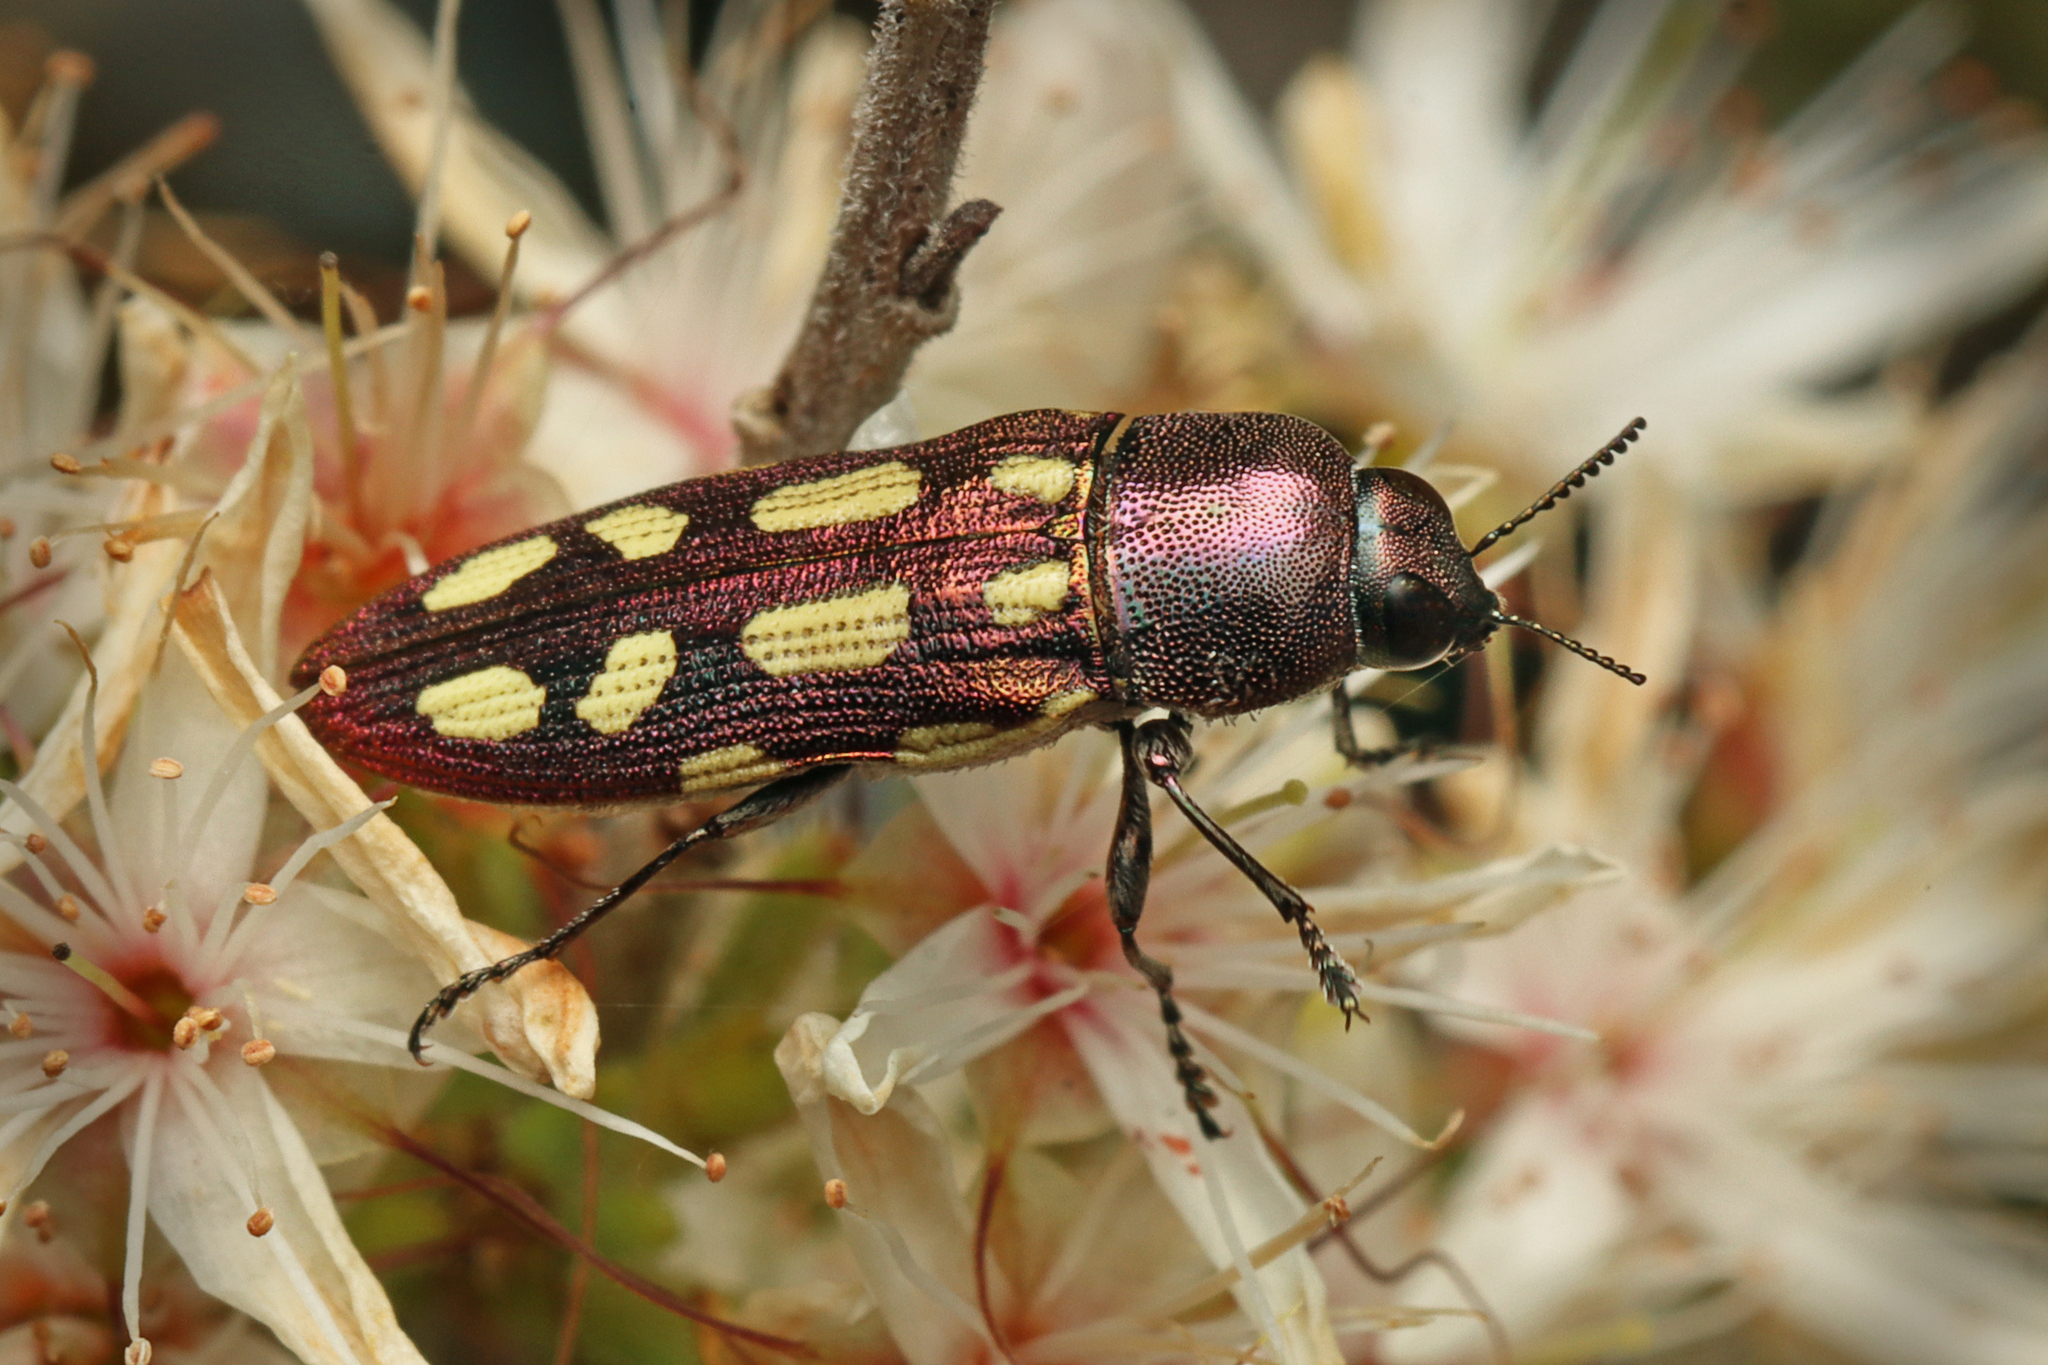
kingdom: Animalia
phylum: Arthropoda
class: Insecta
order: Coleoptera
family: Buprestidae
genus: Castiarina
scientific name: Castiarina parallela
